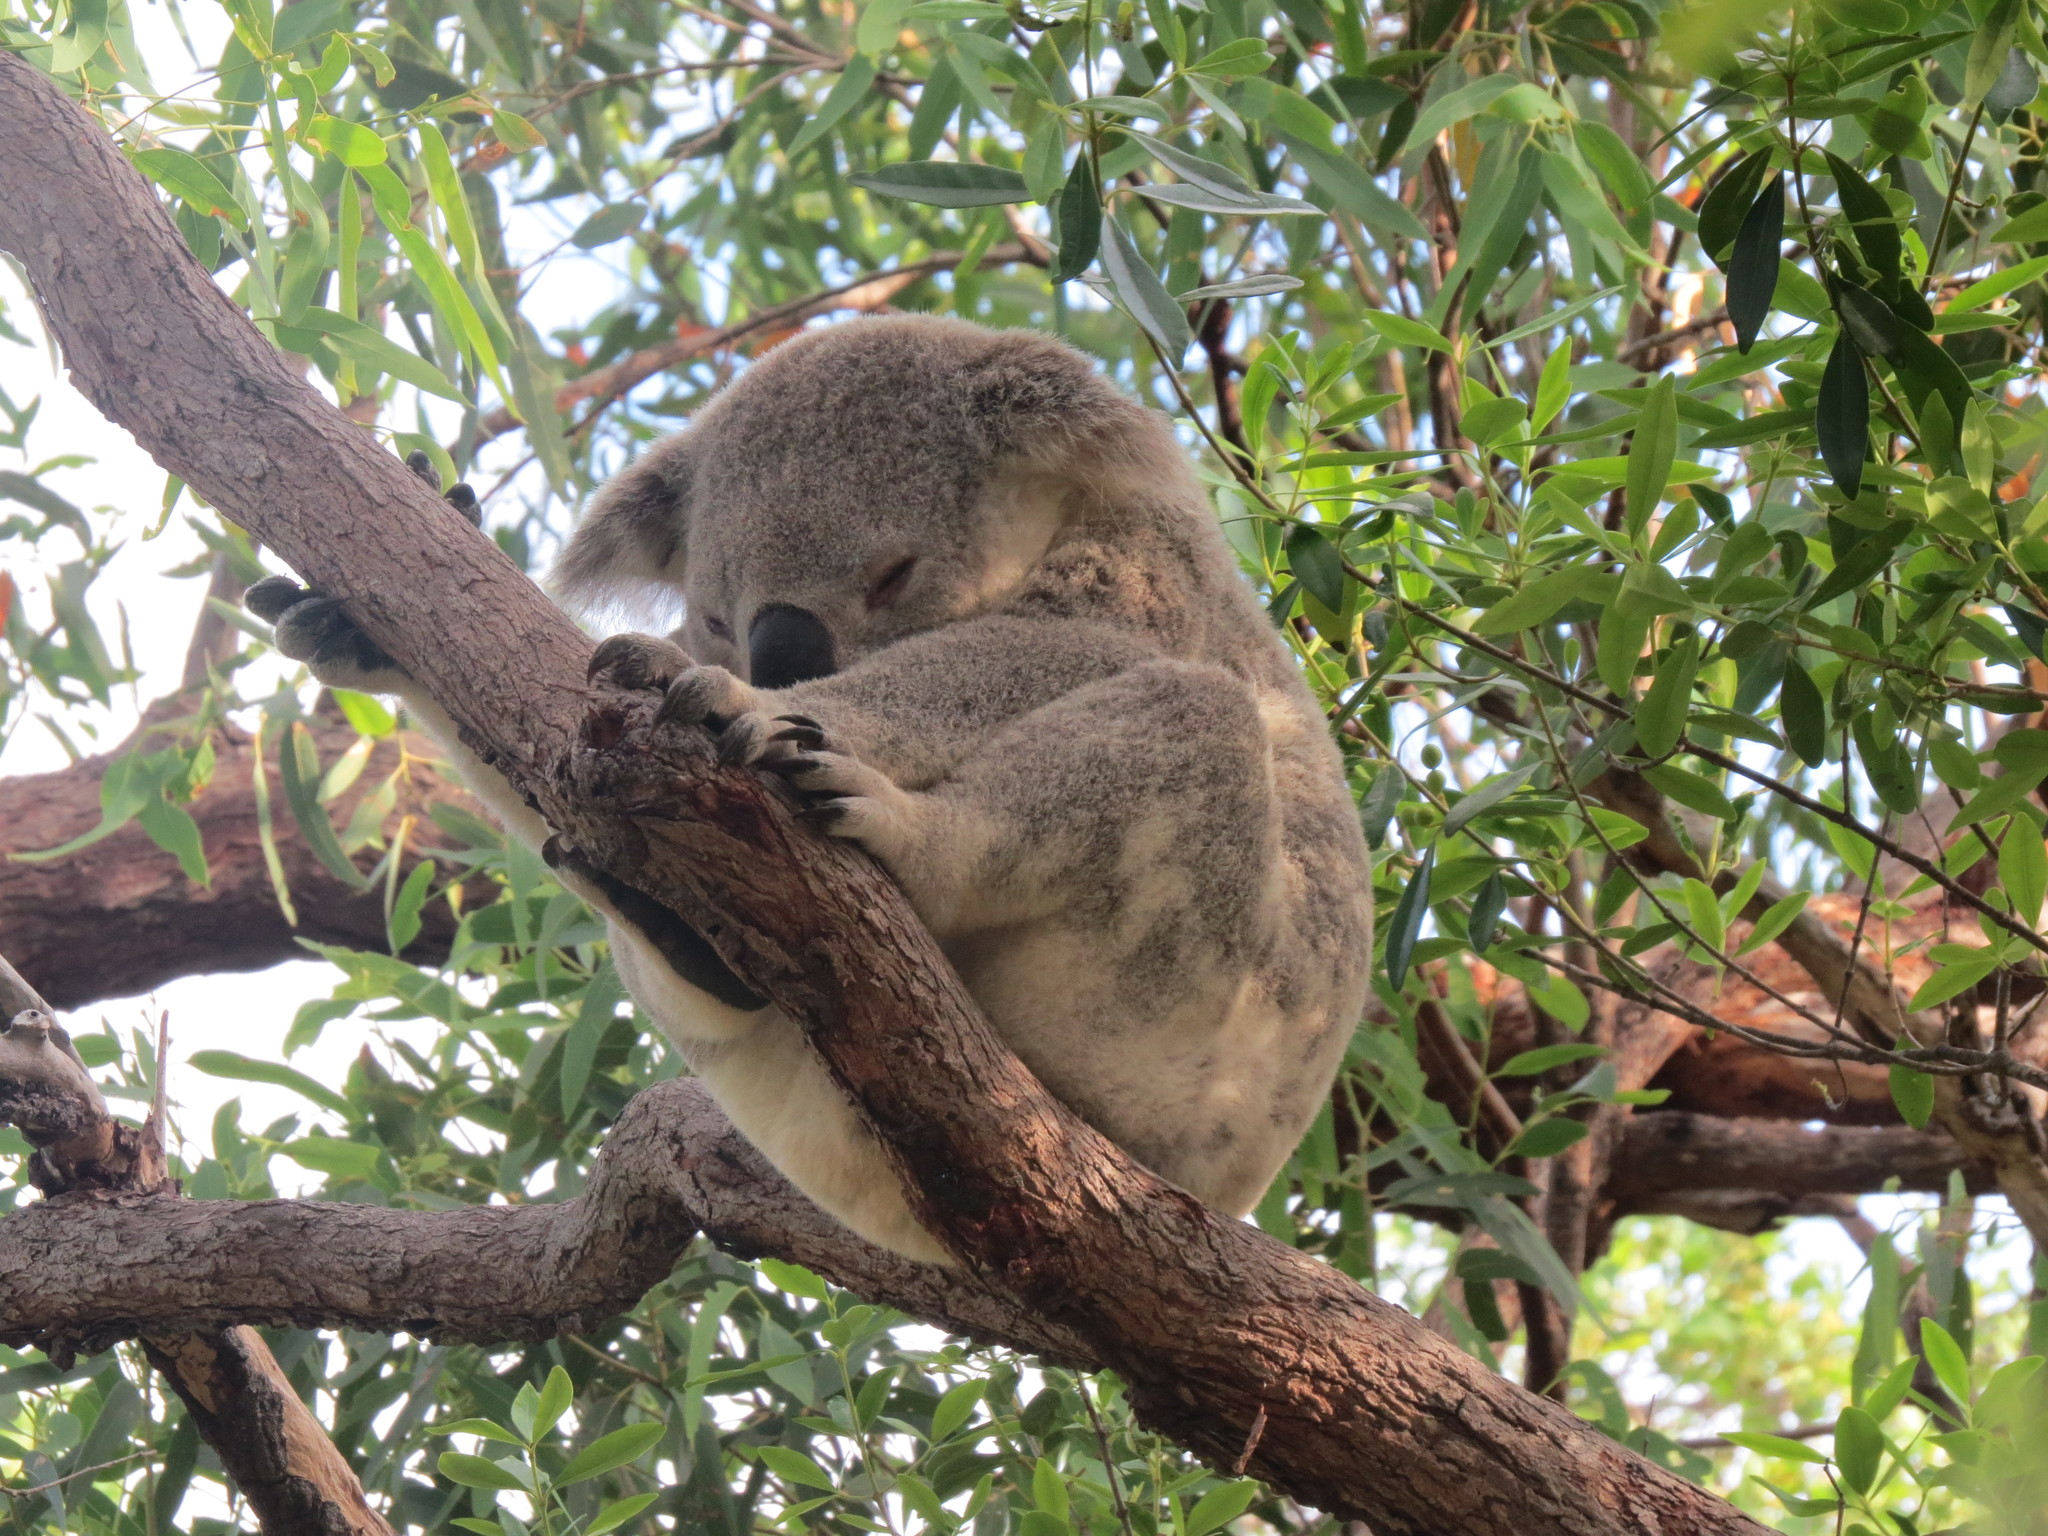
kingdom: Animalia
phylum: Chordata
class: Mammalia
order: Diprotodontia
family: Phascolarctidae
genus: Phascolarctos
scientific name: Phascolarctos cinereus
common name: Koala
